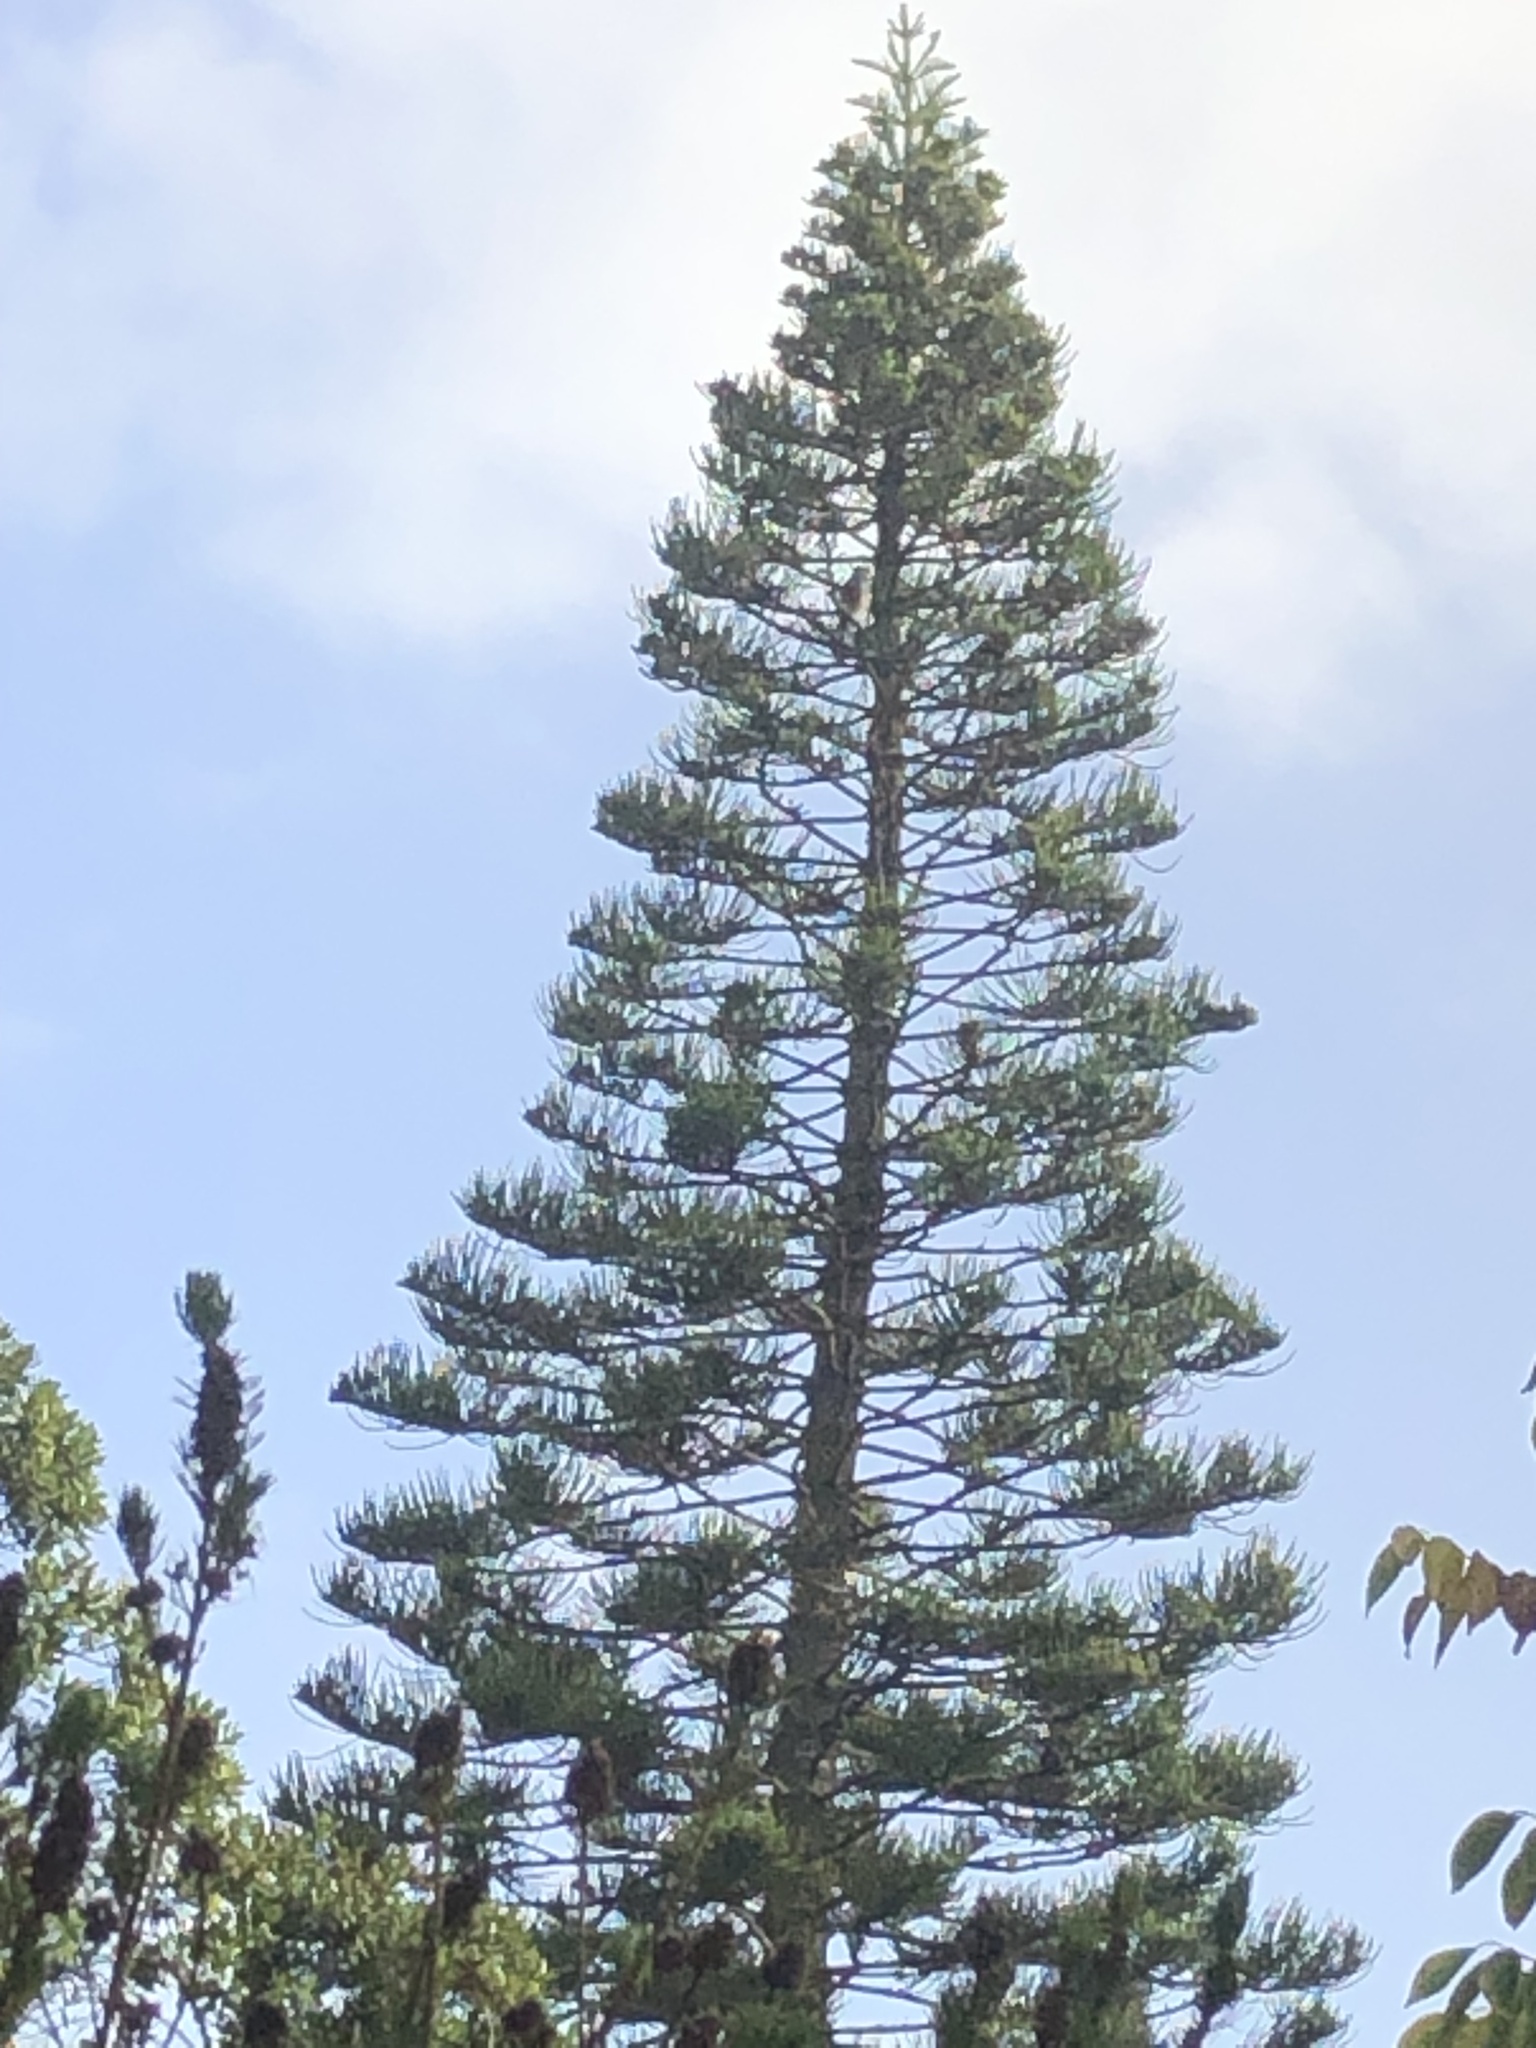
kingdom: Animalia
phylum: Chordata
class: Aves
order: Accipitriformes
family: Accipitridae
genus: Accipiter
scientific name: Accipiter tachiro
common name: African goshawk
